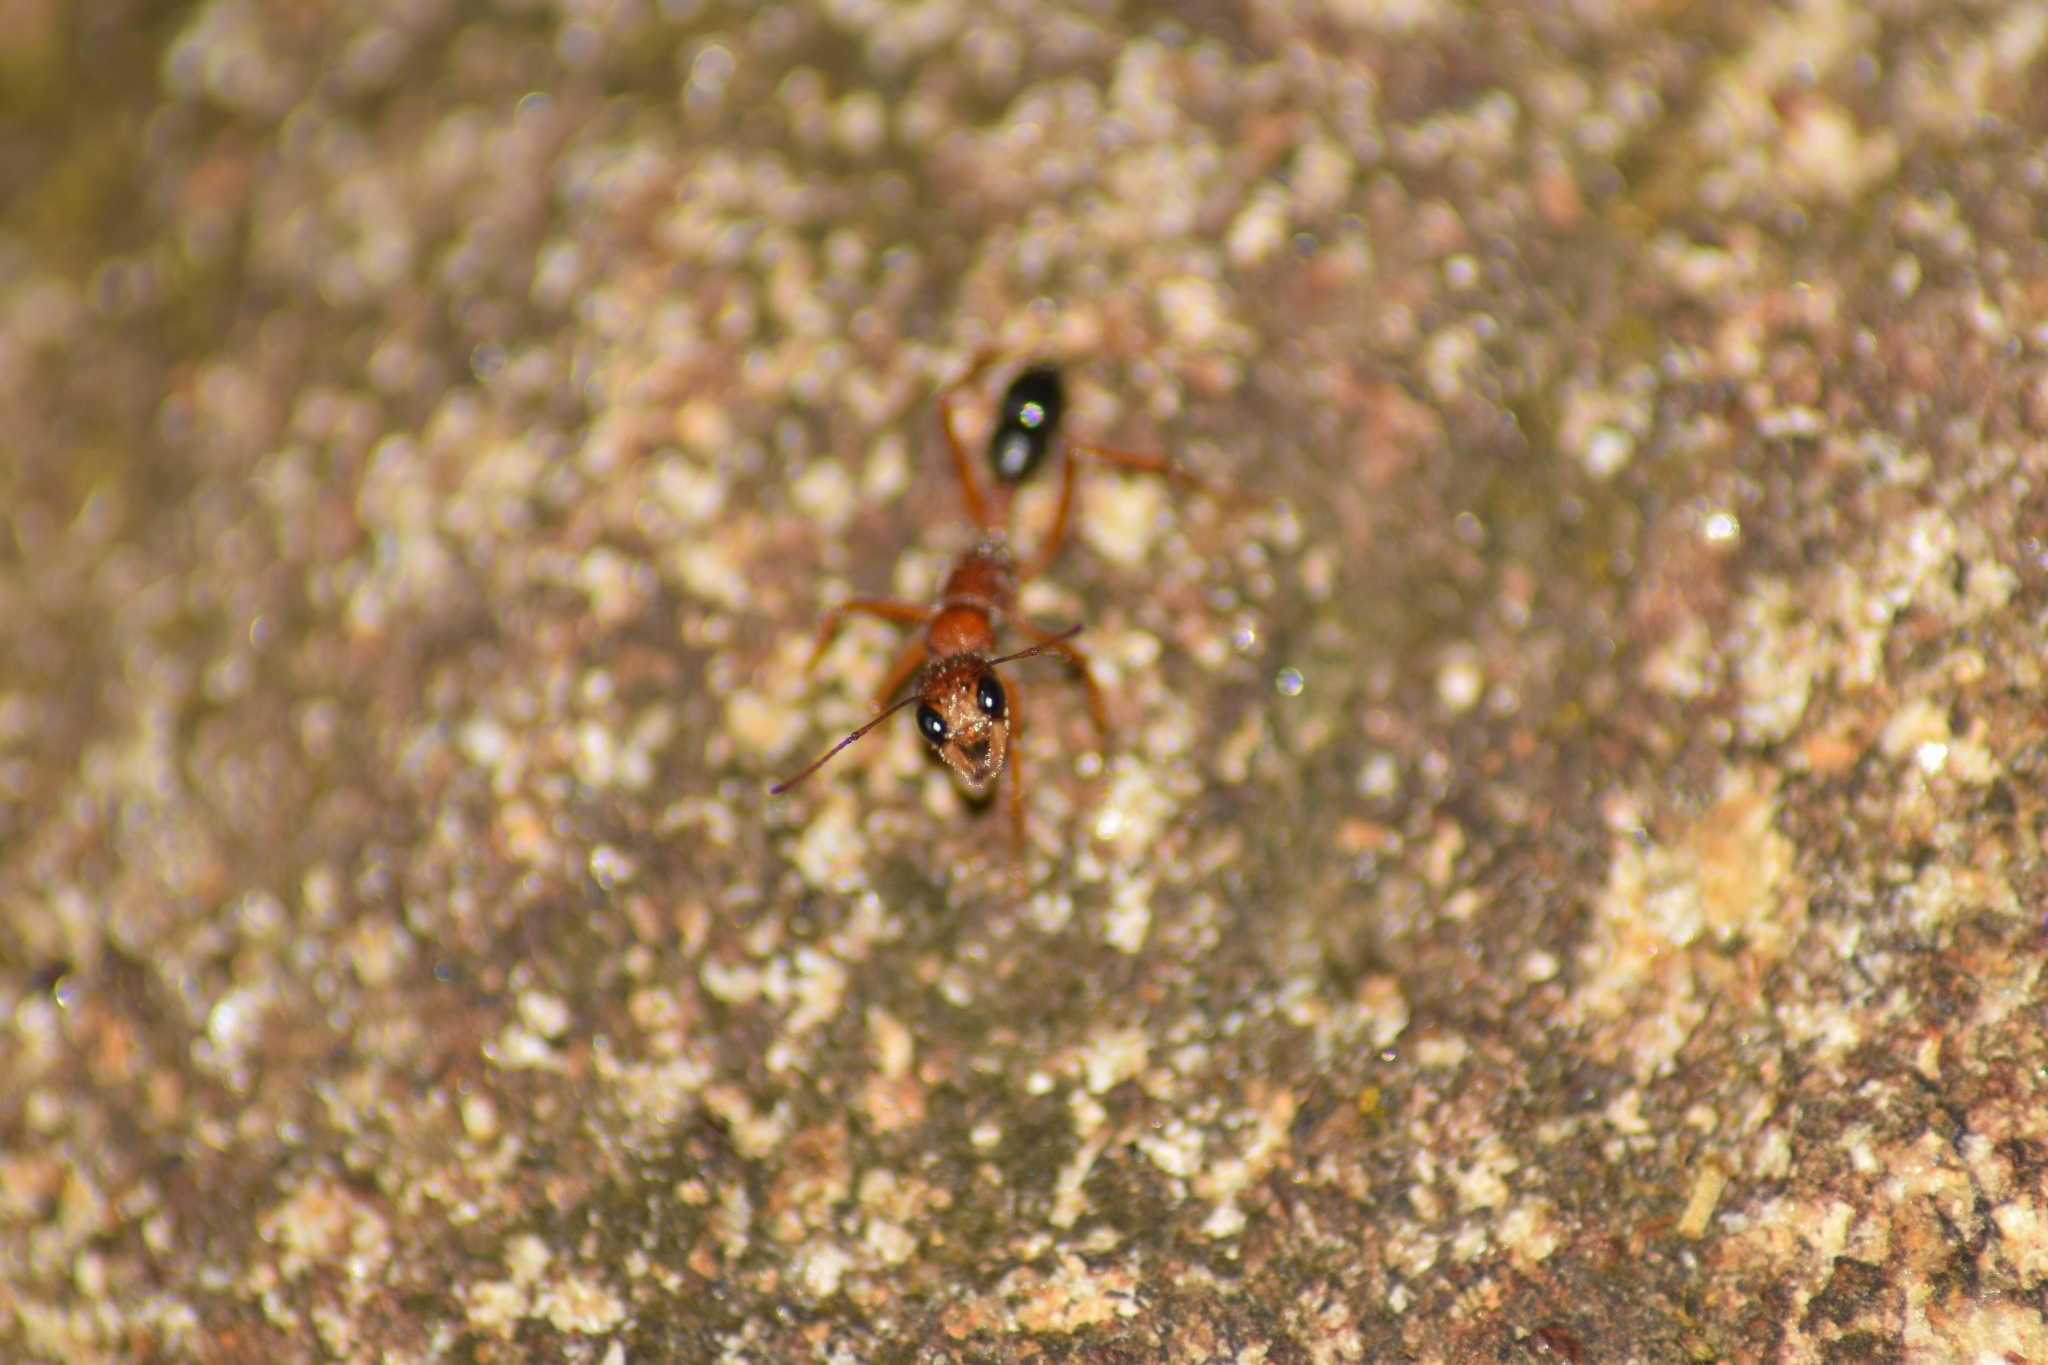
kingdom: Animalia
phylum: Arthropoda
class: Insecta
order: Hymenoptera
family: Formicidae
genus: Harpegnathos
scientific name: Harpegnathos saltator
